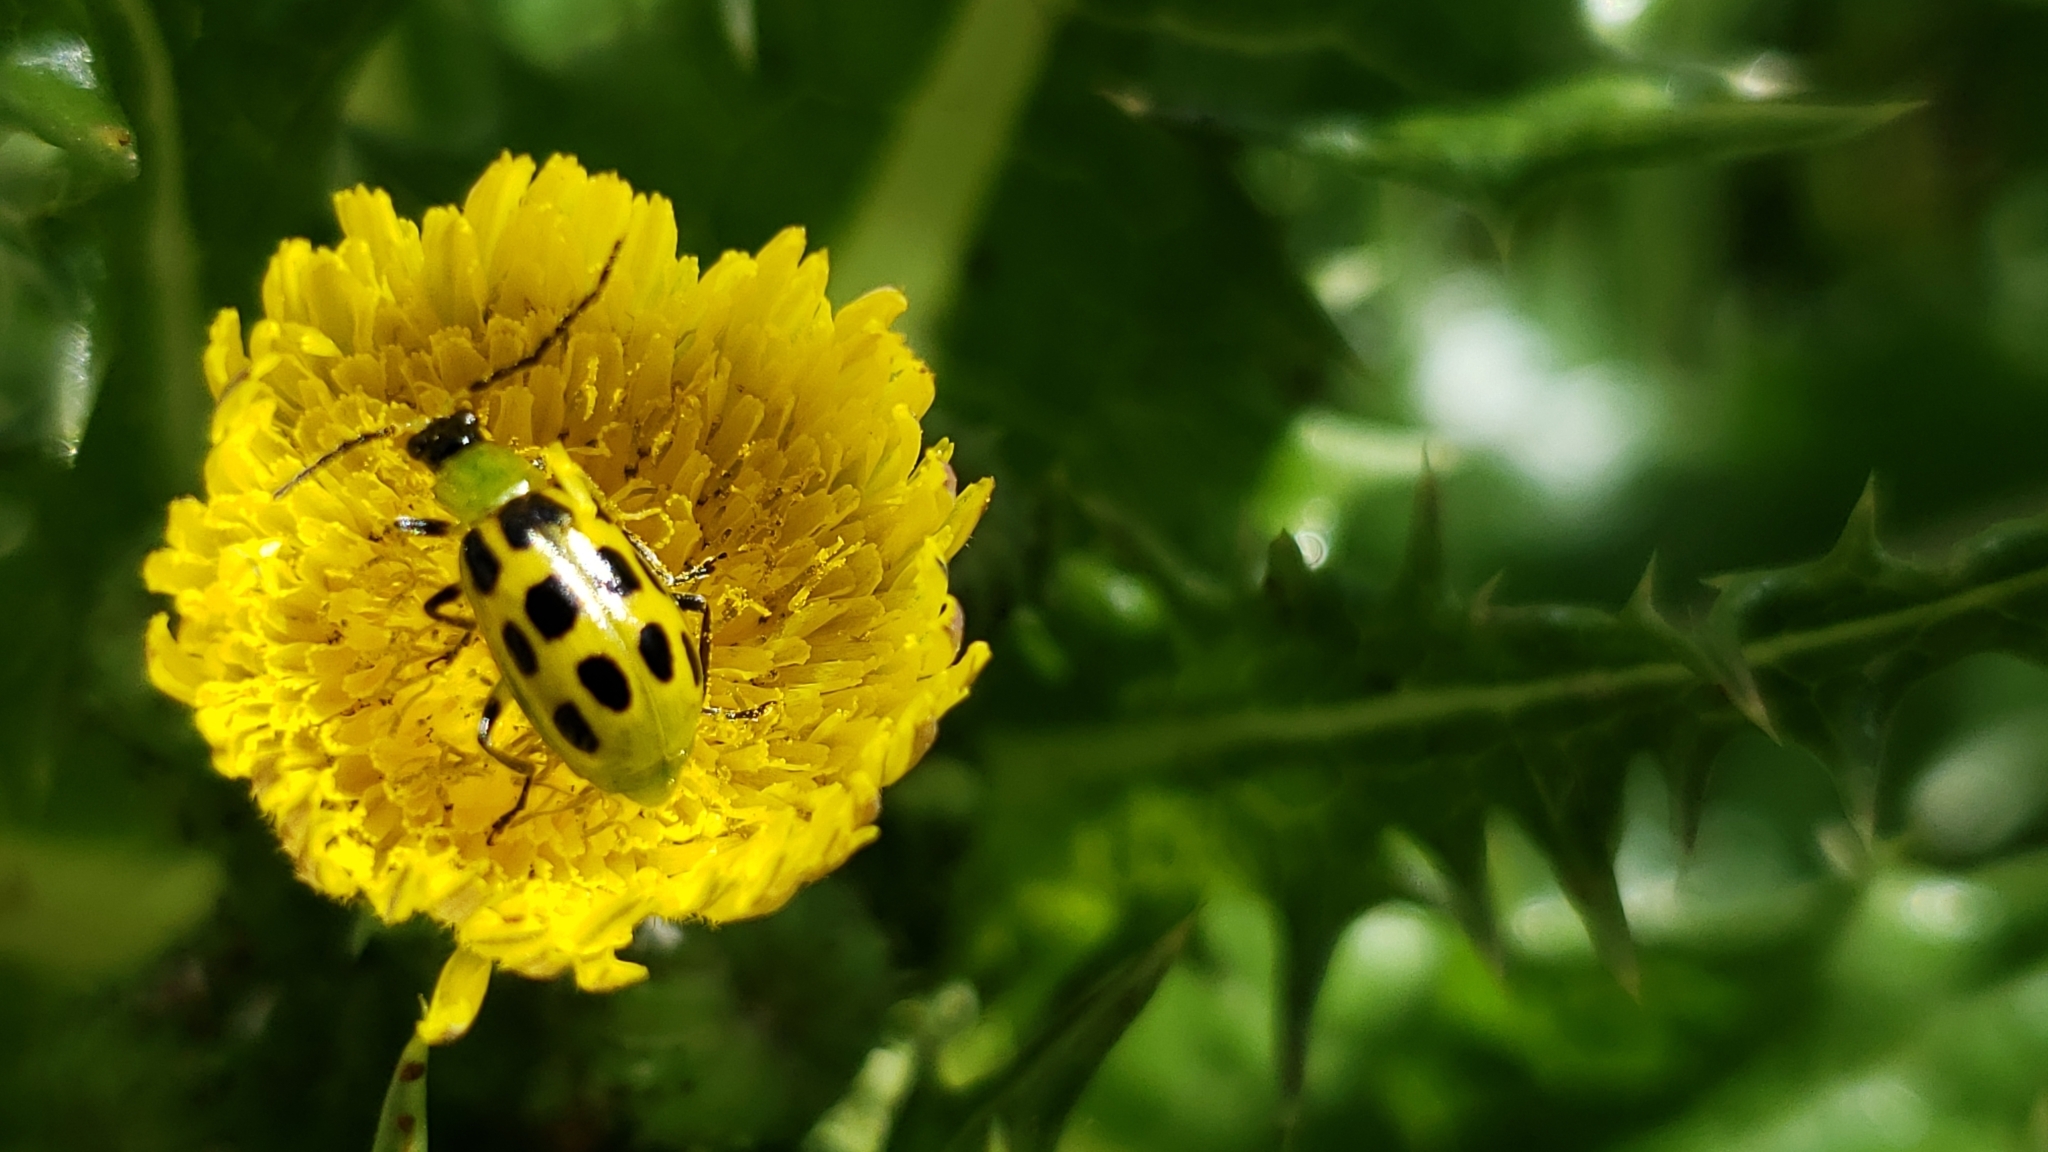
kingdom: Animalia
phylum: Arthropoda
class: Insecta
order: Coleoptera
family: Chrysomelidae
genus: Diabrotica
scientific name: Diabrotica undecimpunctata
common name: Spotted cucumber beetle
